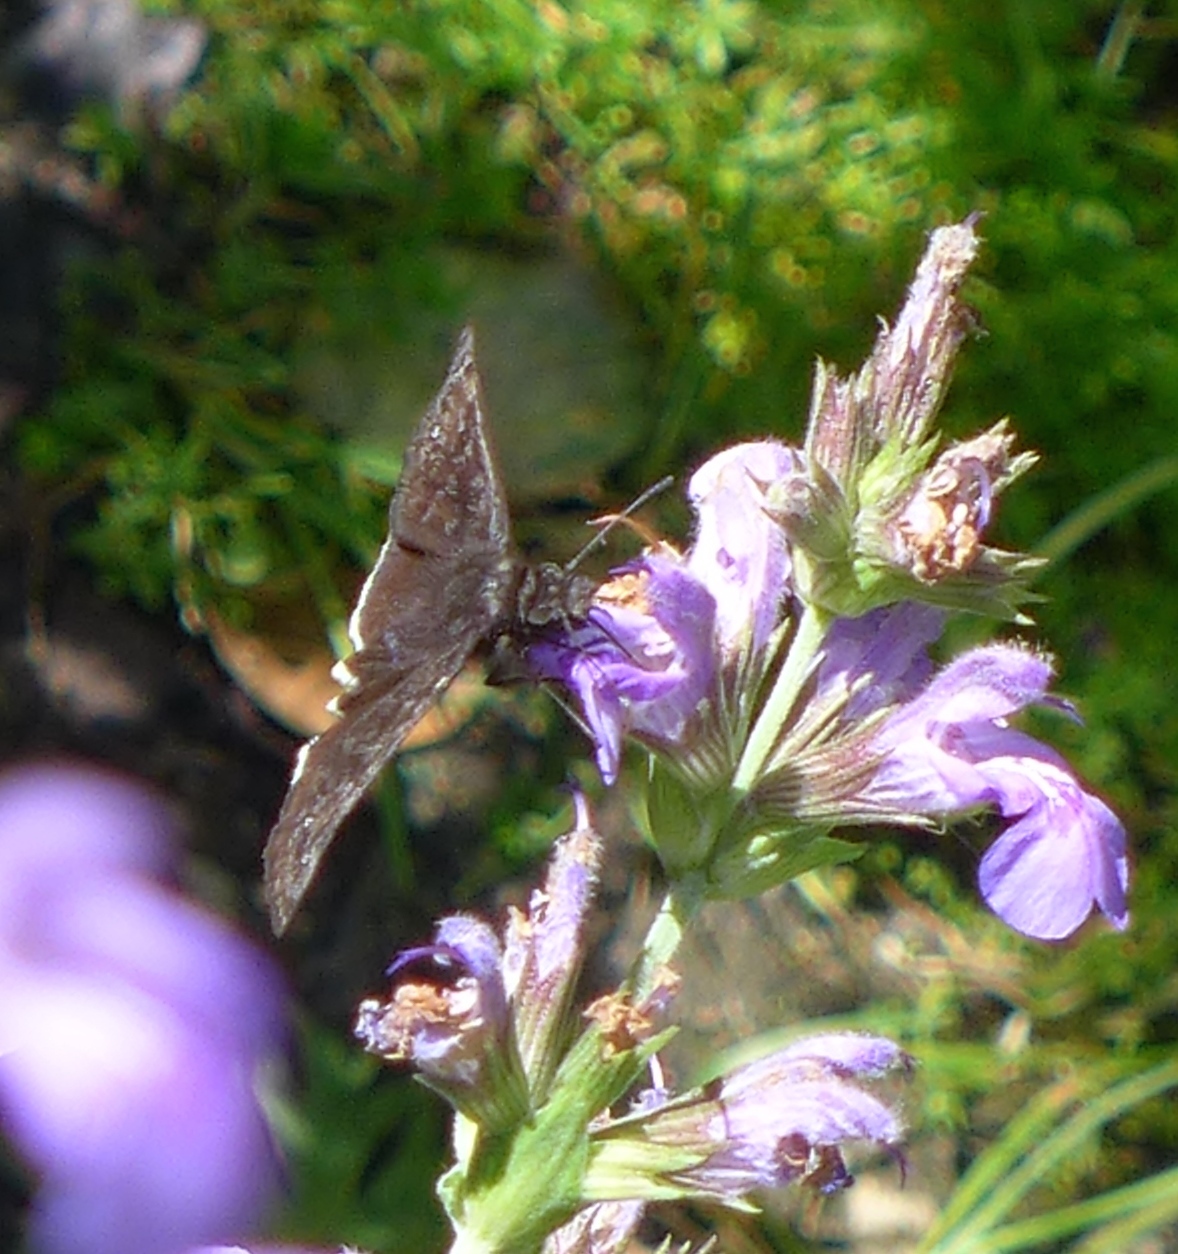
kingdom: Animalia
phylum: Arthropoda
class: Insecta
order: Lepidoptera
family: Hesperiidae
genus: Erynnis
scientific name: Erynnis tristis
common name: Mournful duskywing
